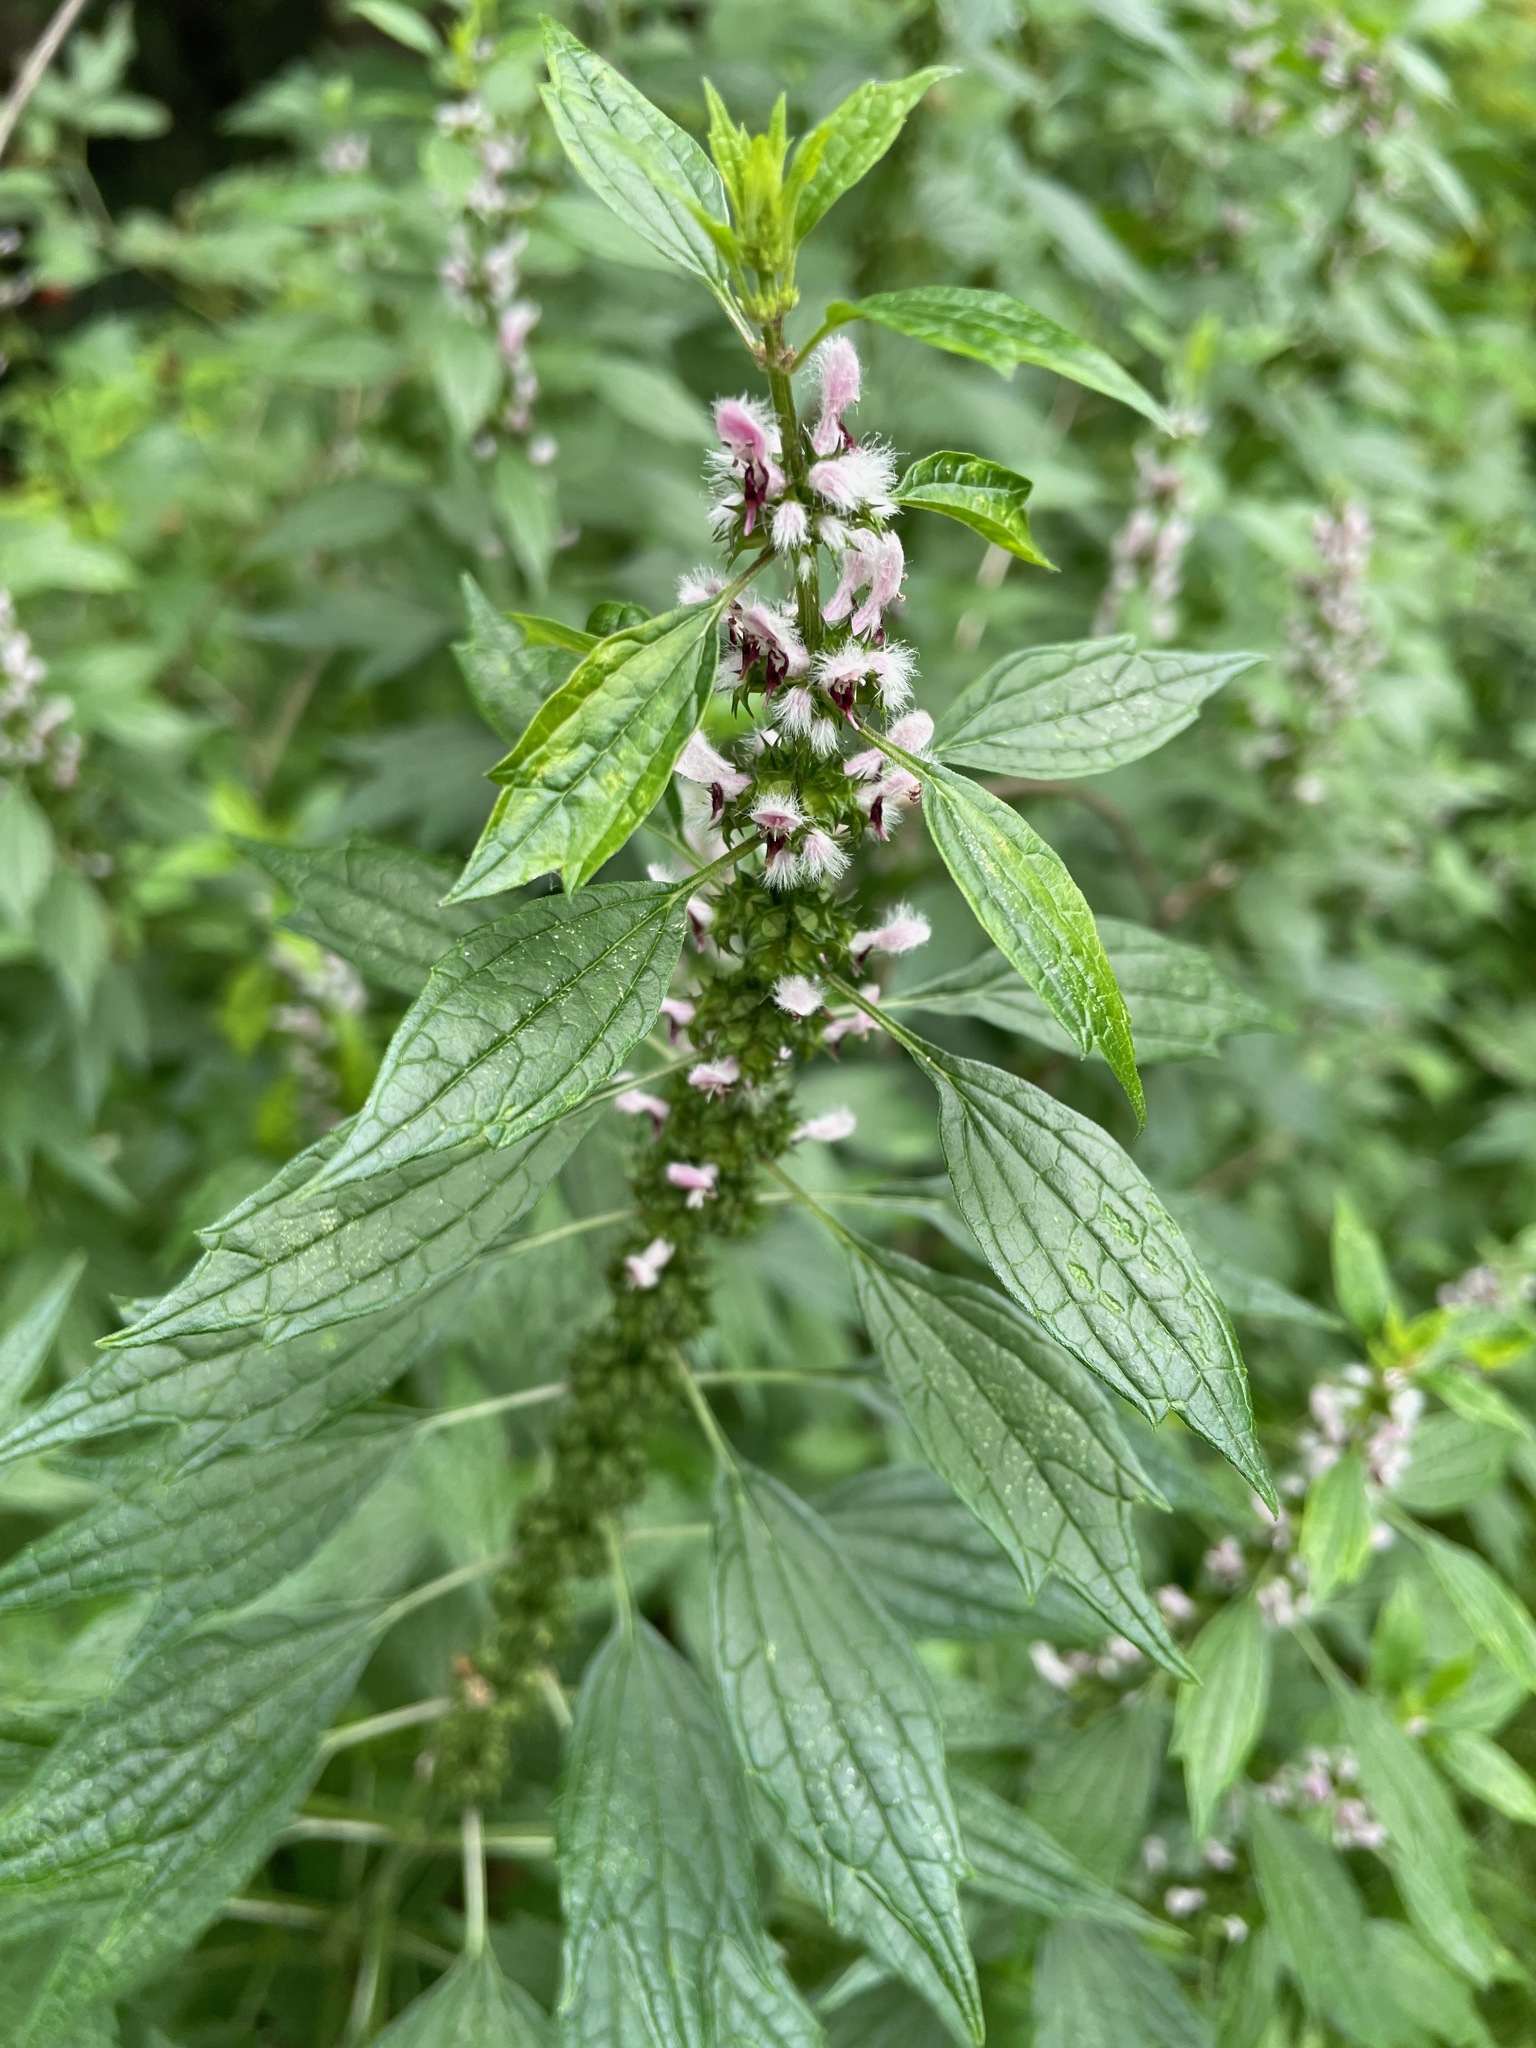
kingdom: Plantae
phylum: Tracheophyta
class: Magnoliopsida
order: Lamiales
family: Lamiaceae
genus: Leonurus
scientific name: Leonurus cardiaca
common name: Motherwort
